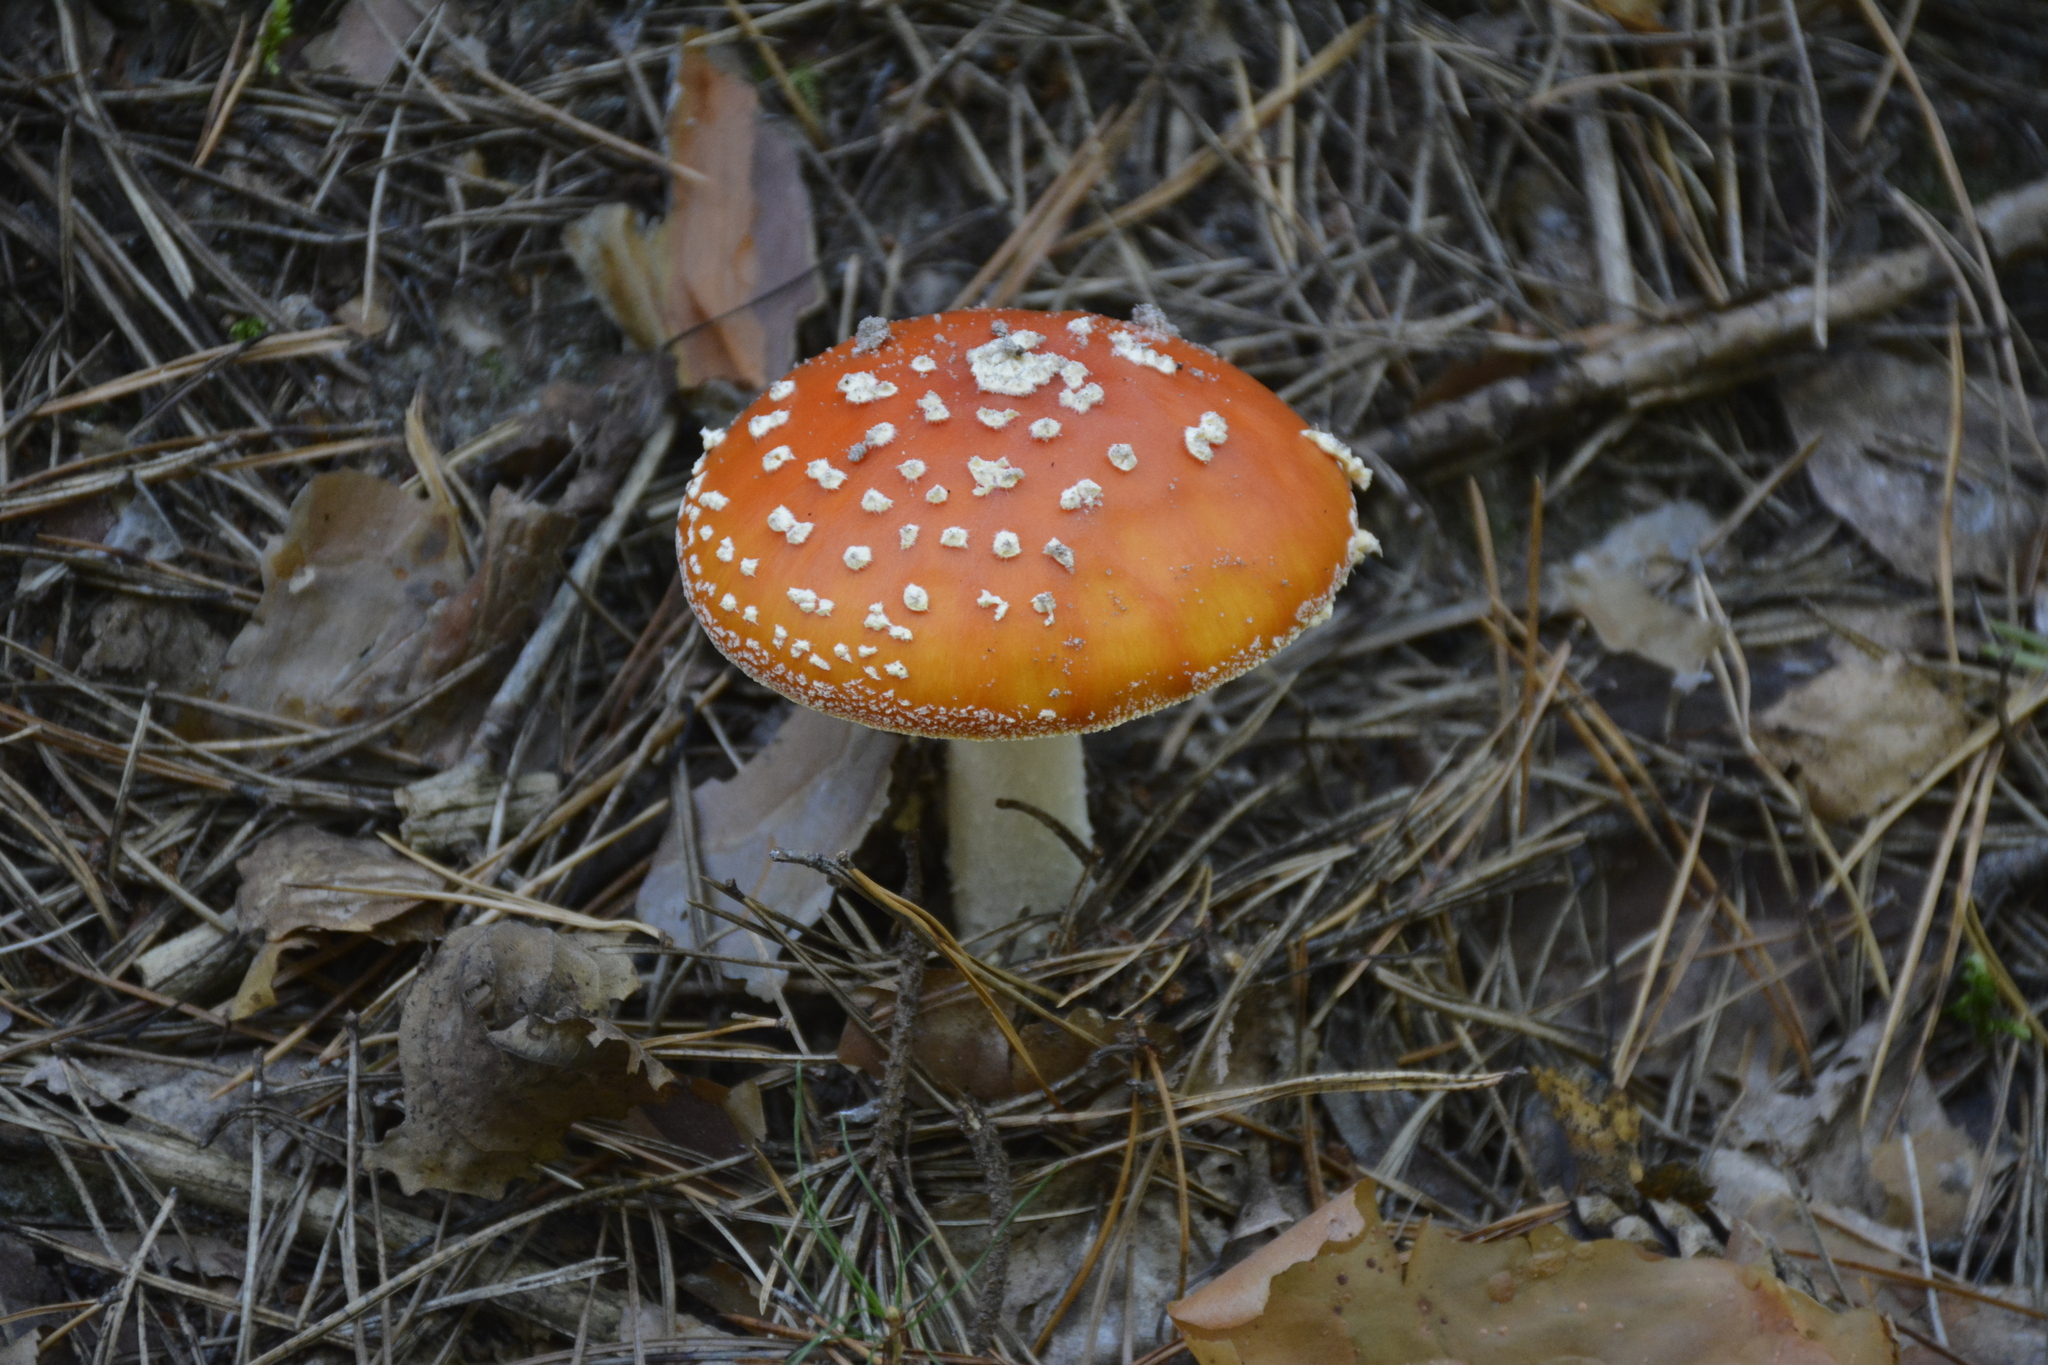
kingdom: Fungi
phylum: Basidiomycota
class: Agaricomycetes
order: Agaricales
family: Amanitaceae
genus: Amanita
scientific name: Amanita muscaria
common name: Fly agaric
